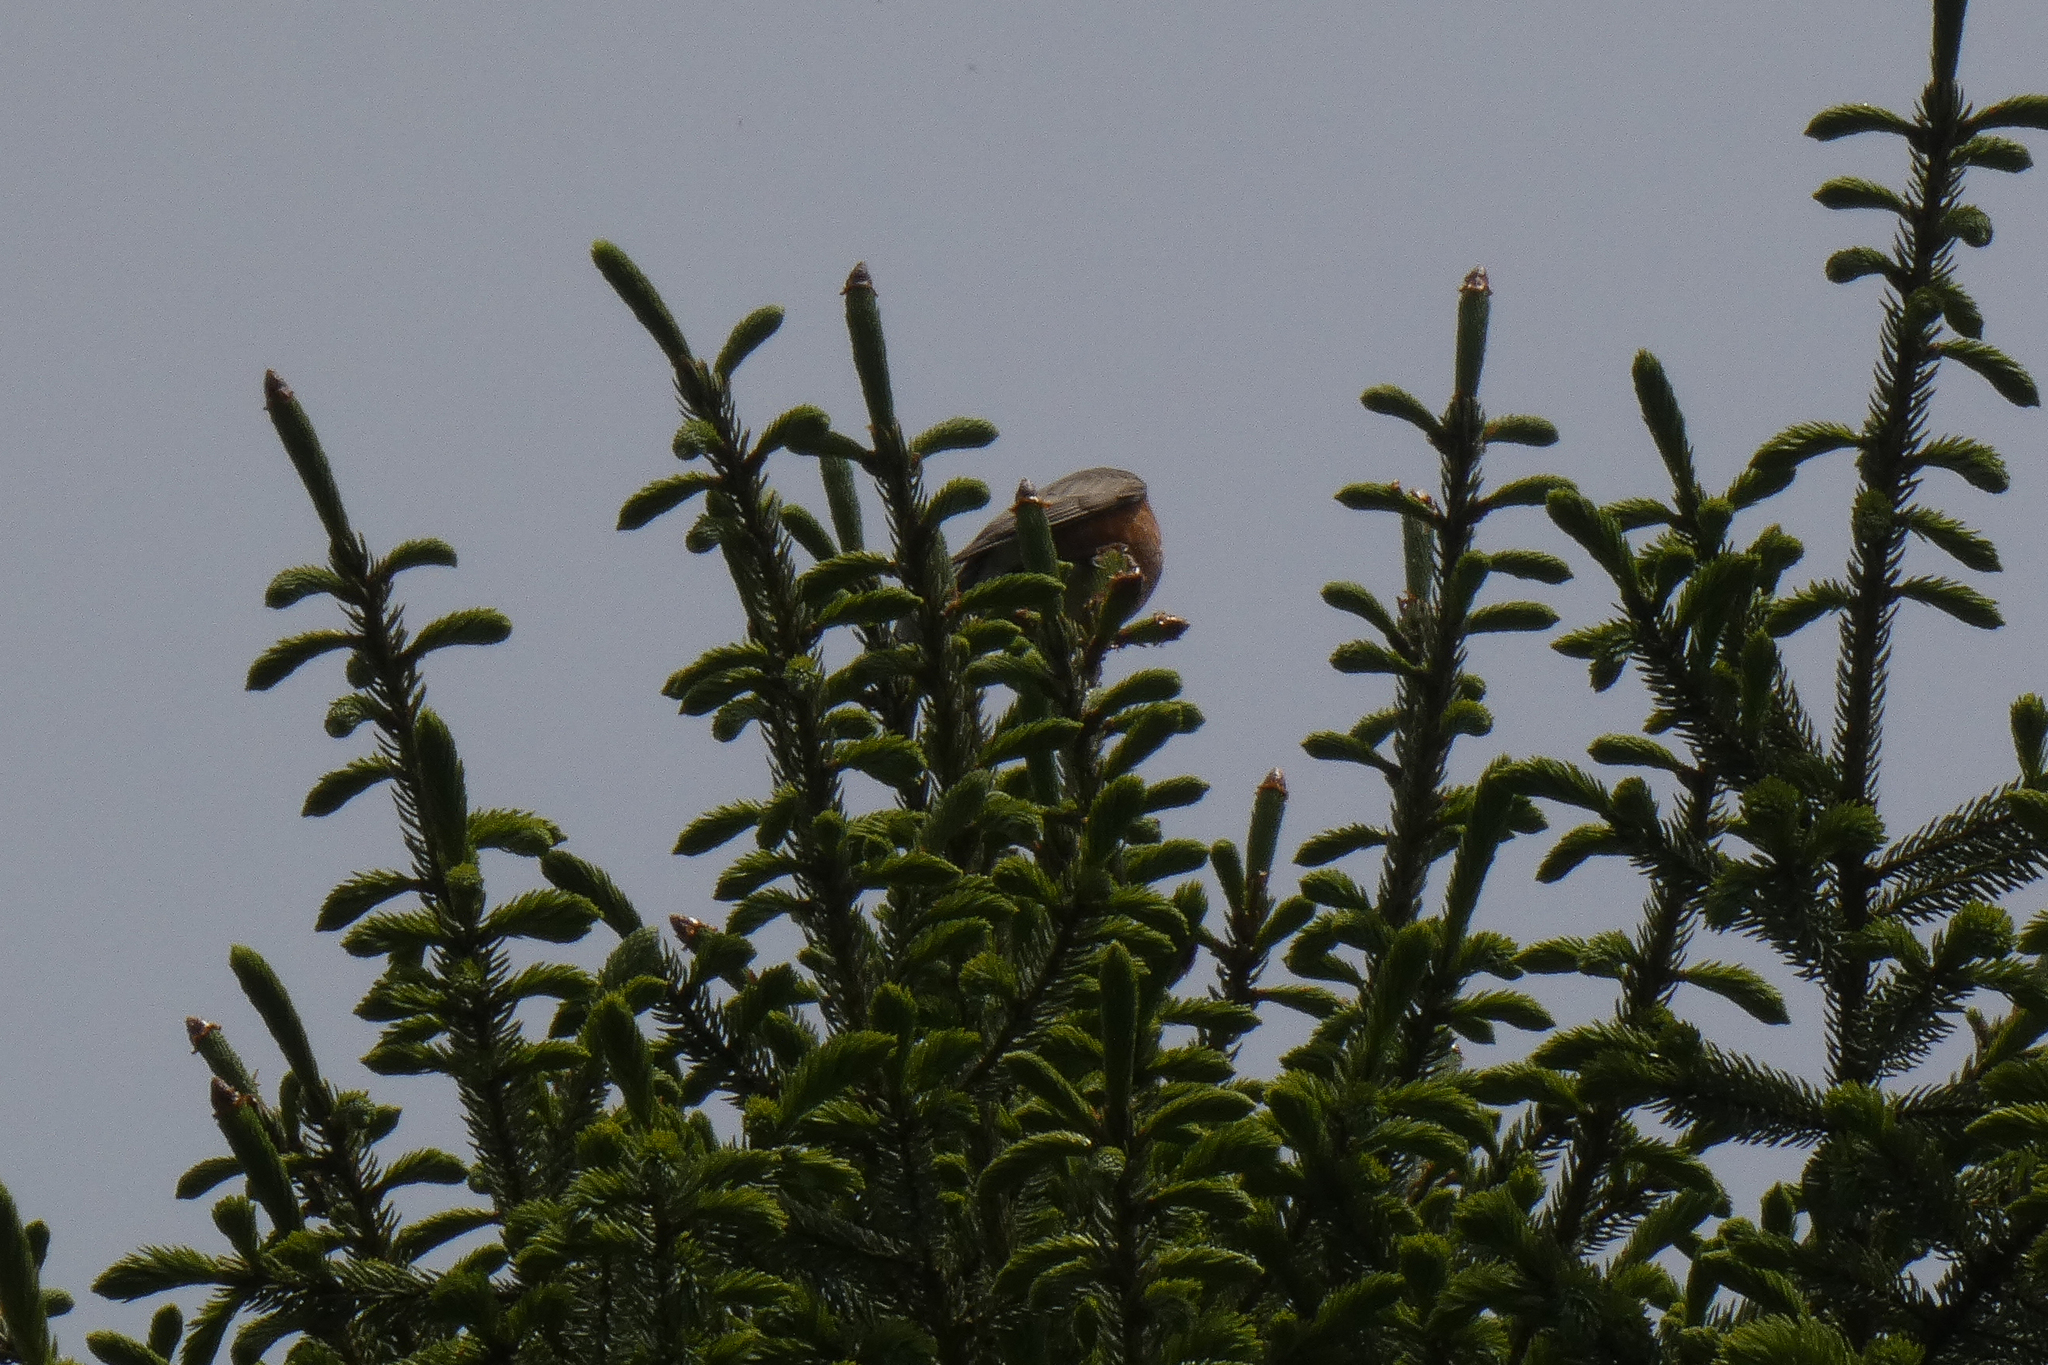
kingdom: Animalia
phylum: Chordata
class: Aves
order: Passeriformes
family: Turdidae
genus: Turdus
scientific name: Turdus migratorius
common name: American robin
